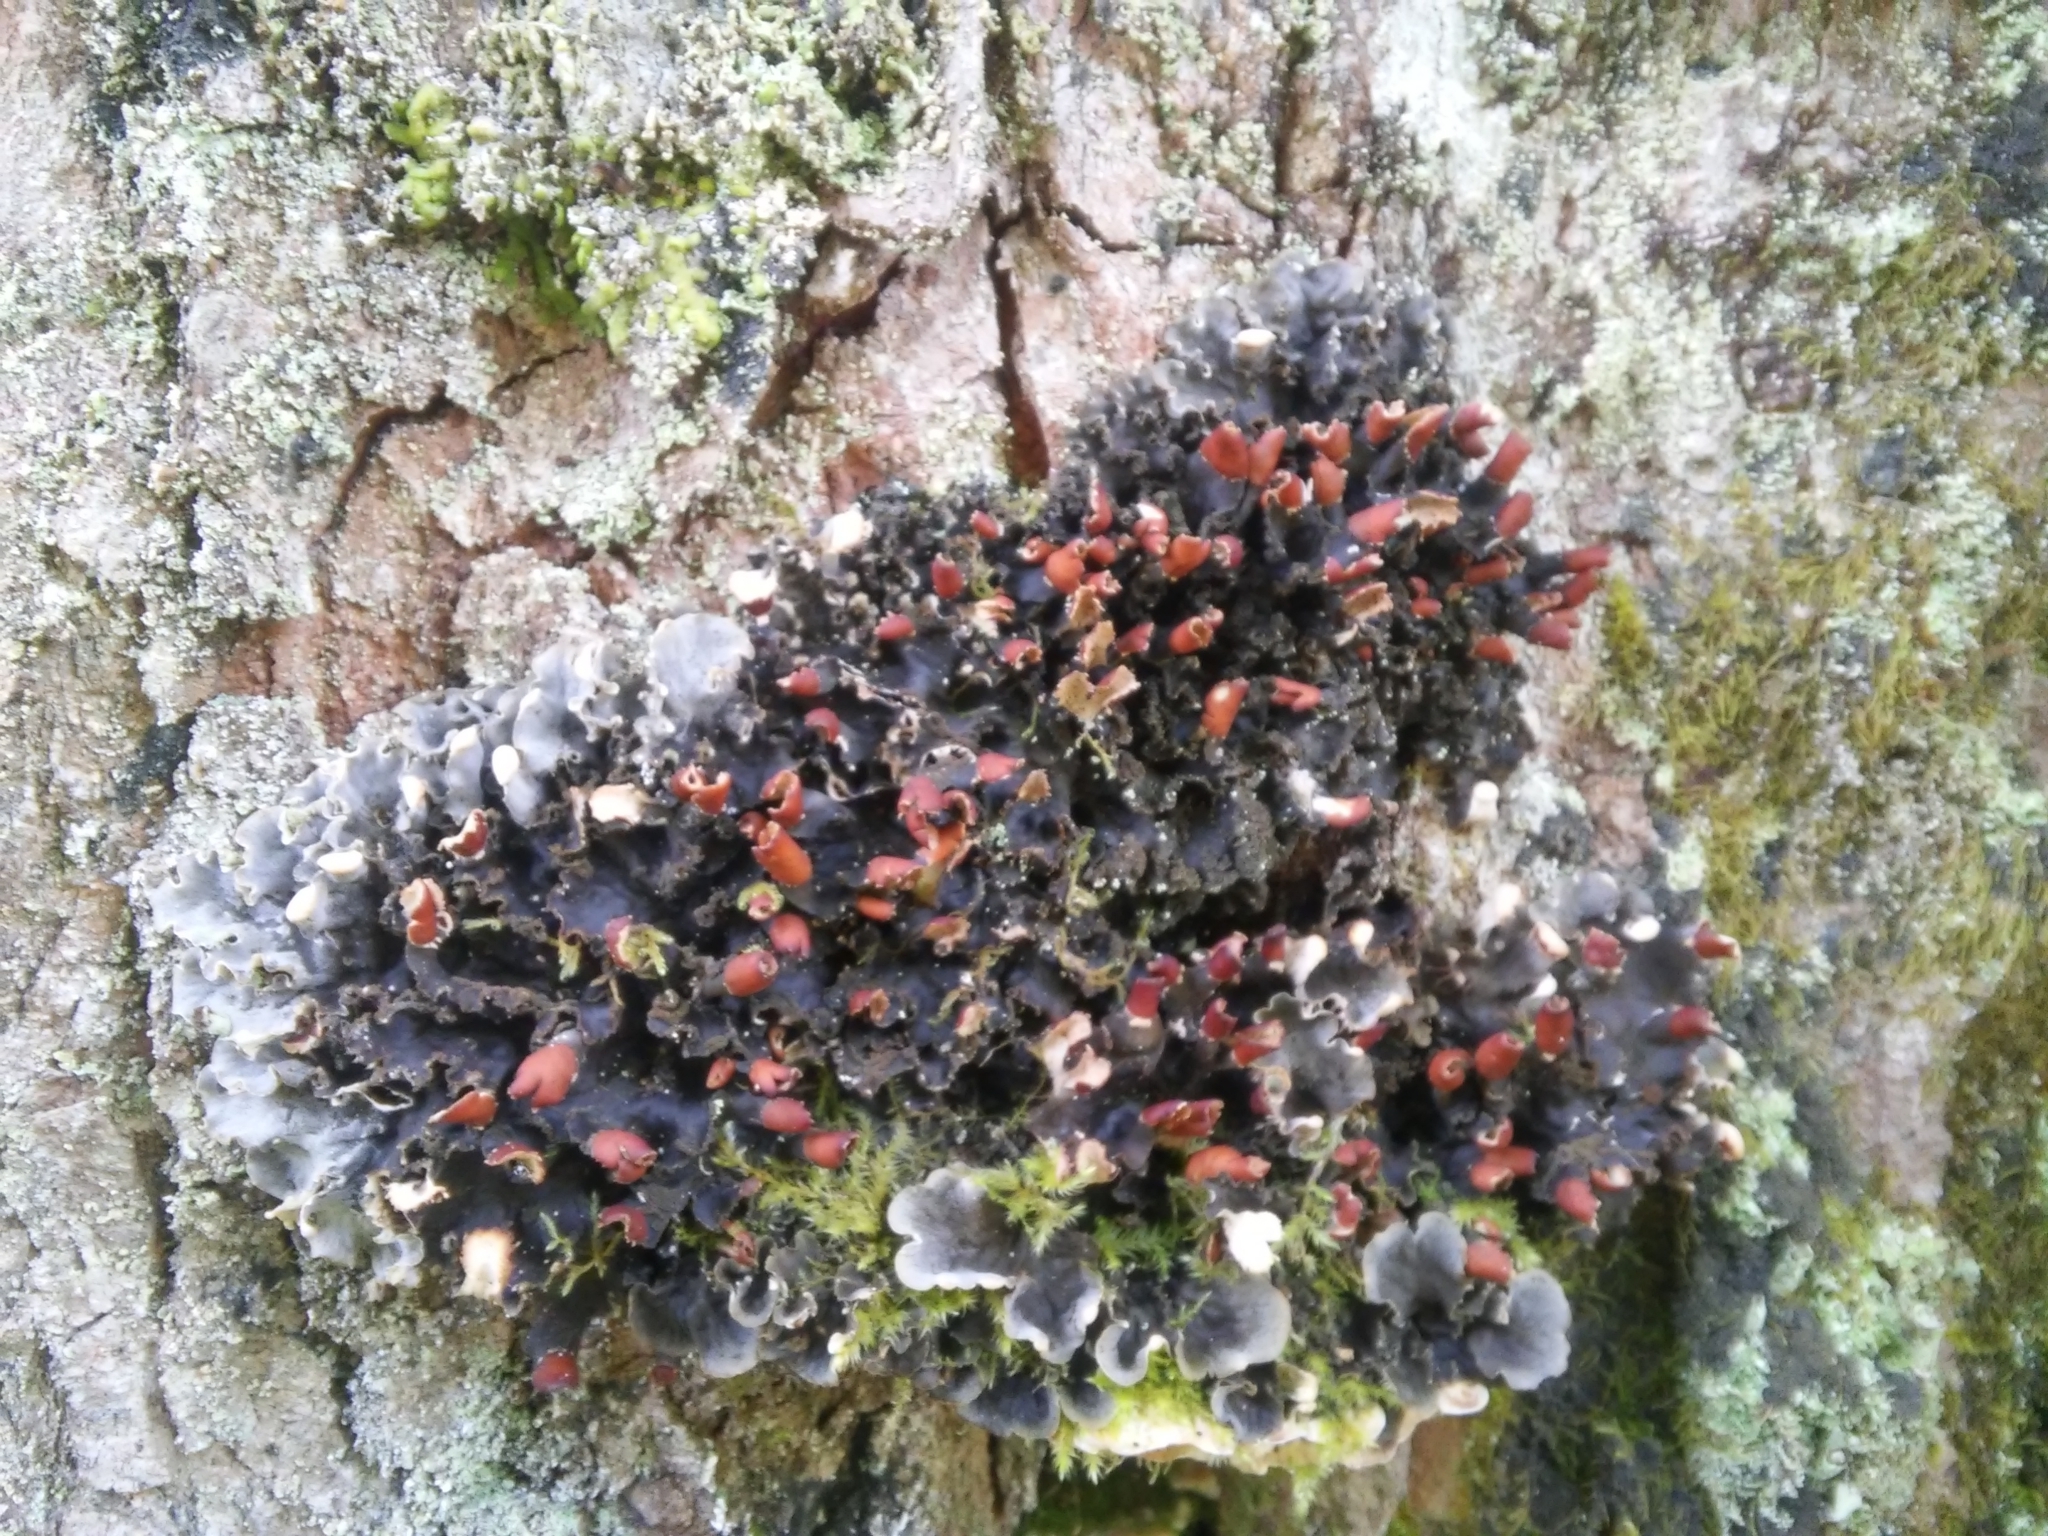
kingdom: Fungi
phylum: Ascomycota
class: Lecanoromycetes
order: Peltigerales
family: Peltigeraceae
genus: Peltigera
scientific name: Peltigera praetextata
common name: Scaly dog-lichen
